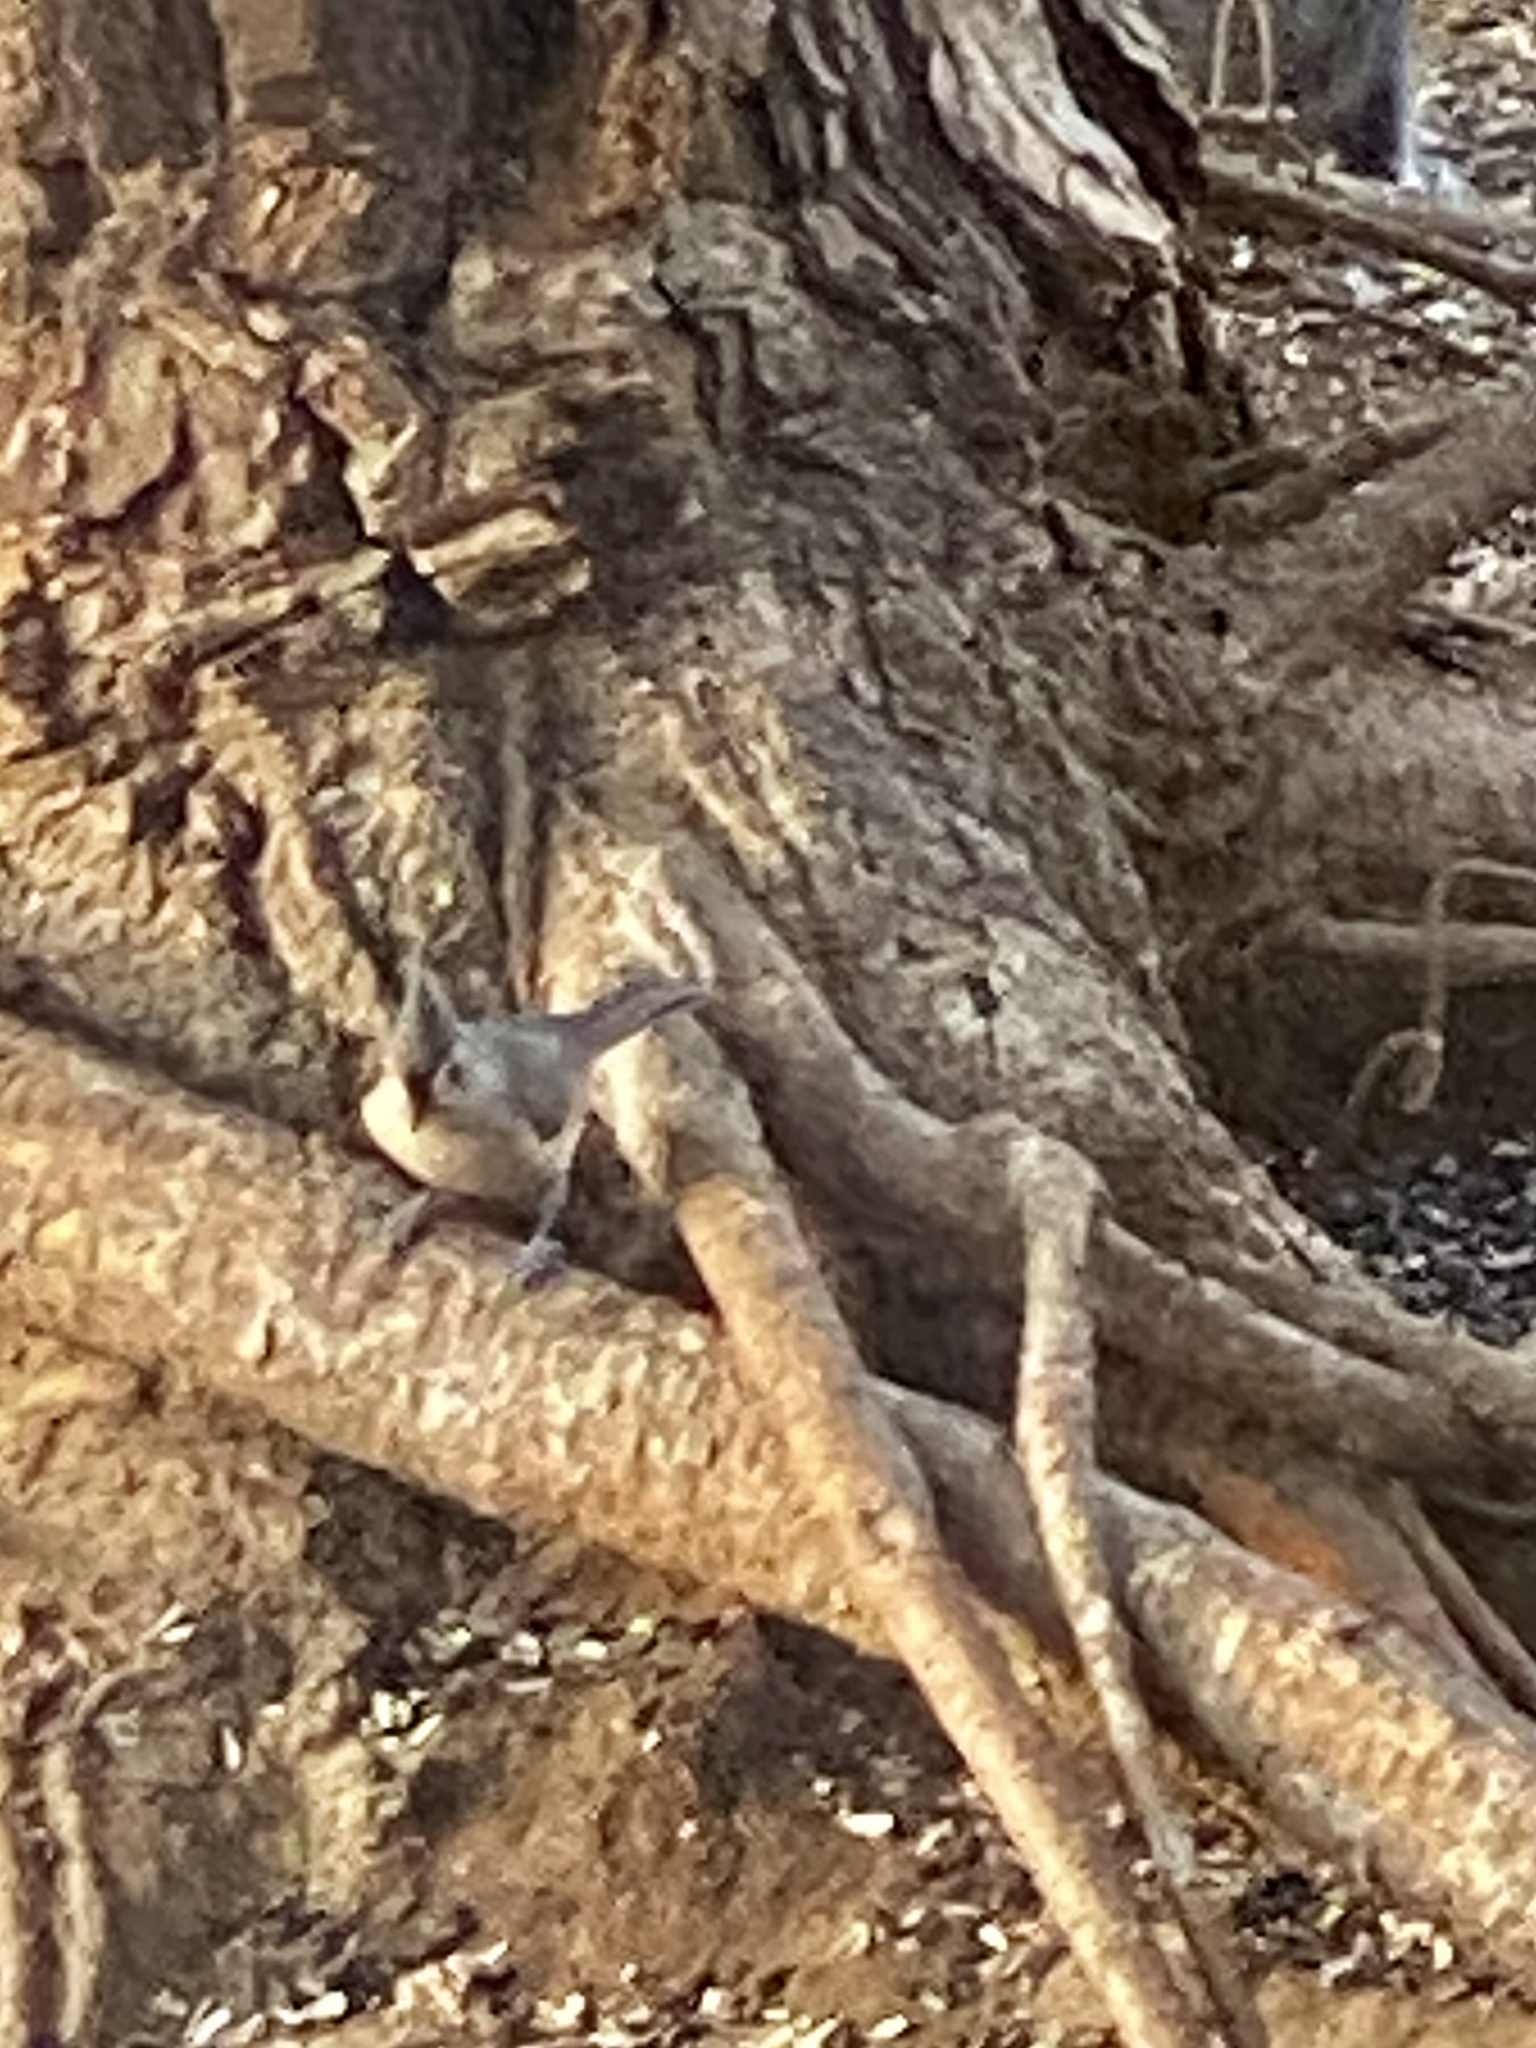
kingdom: Animalia
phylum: Chordata
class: Aves
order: Passeriformes
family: Paridae
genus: Baeolophus
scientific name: Baeolophus bicolor
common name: Tufted titmouse
